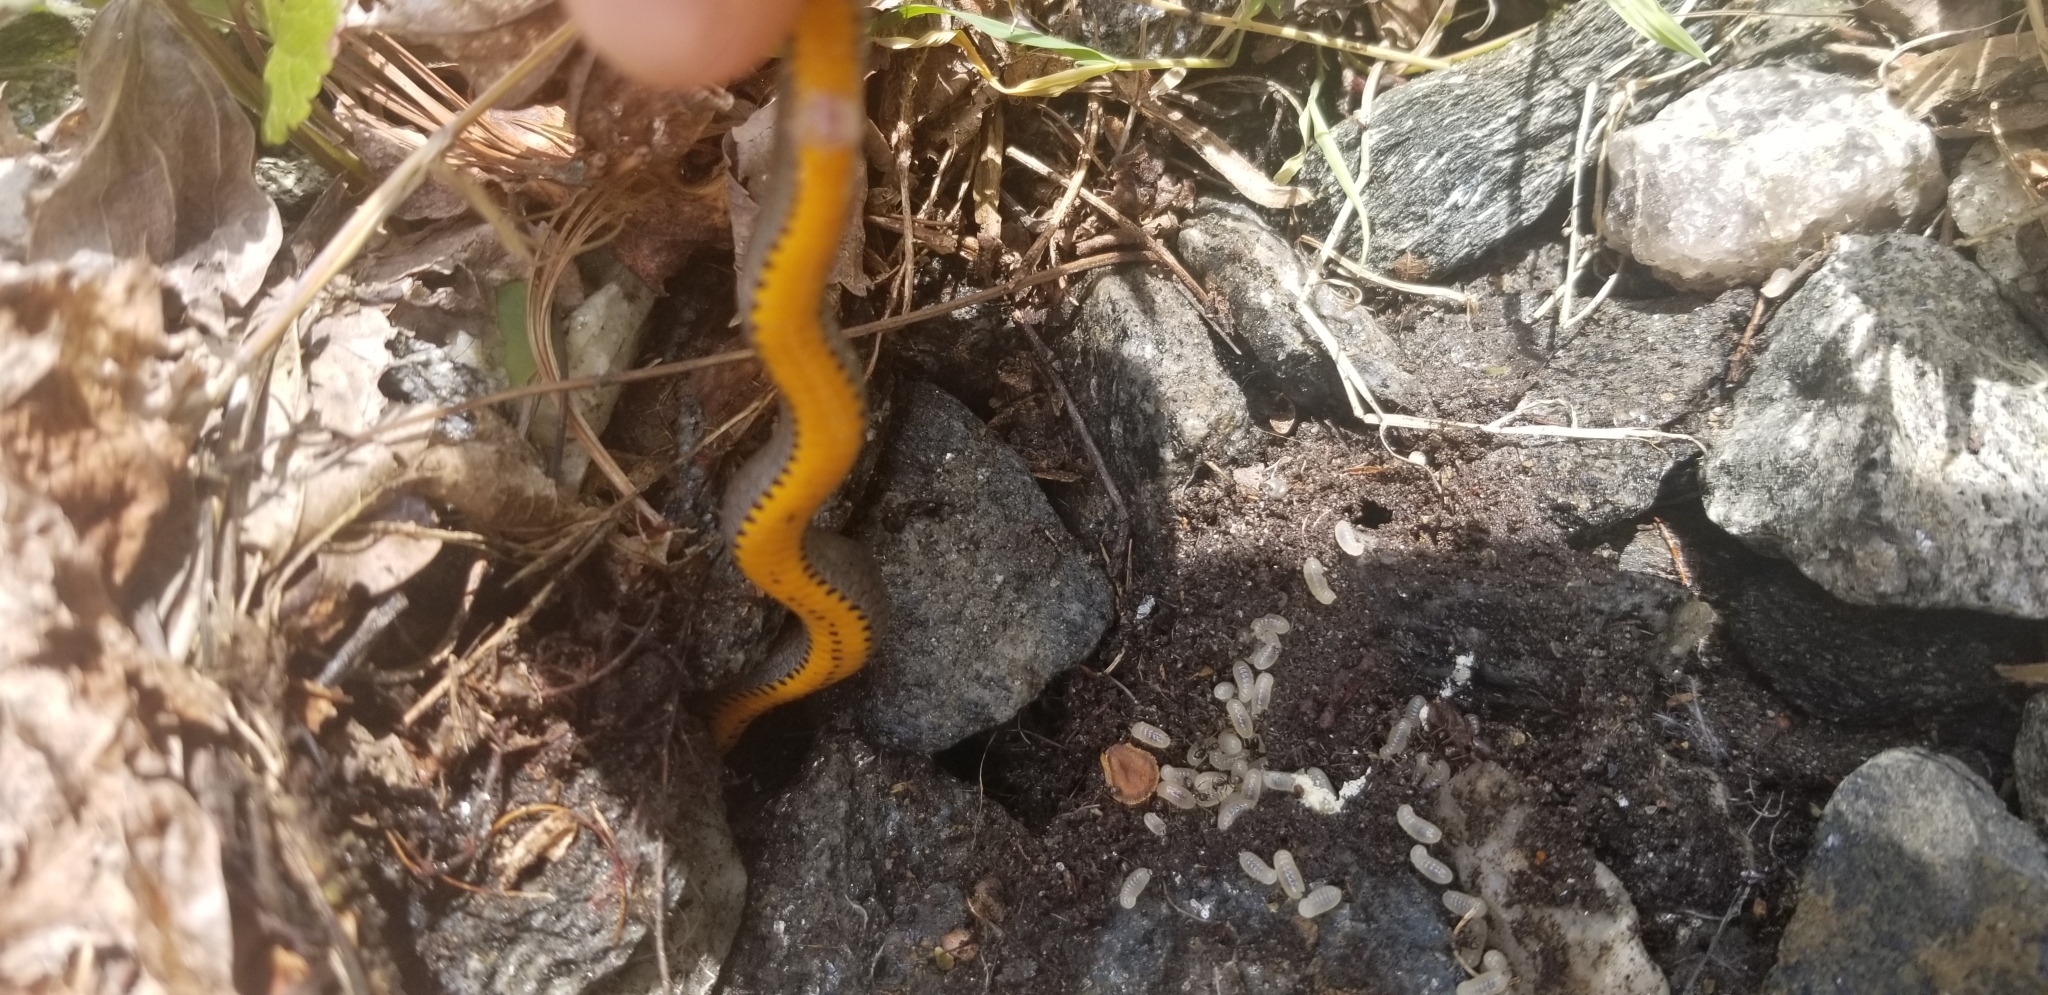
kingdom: Animalia
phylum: Chordata
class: Squamata
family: Colubridae
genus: Diadophis
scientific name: Diadophis punctatus
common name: Ringneck snake
